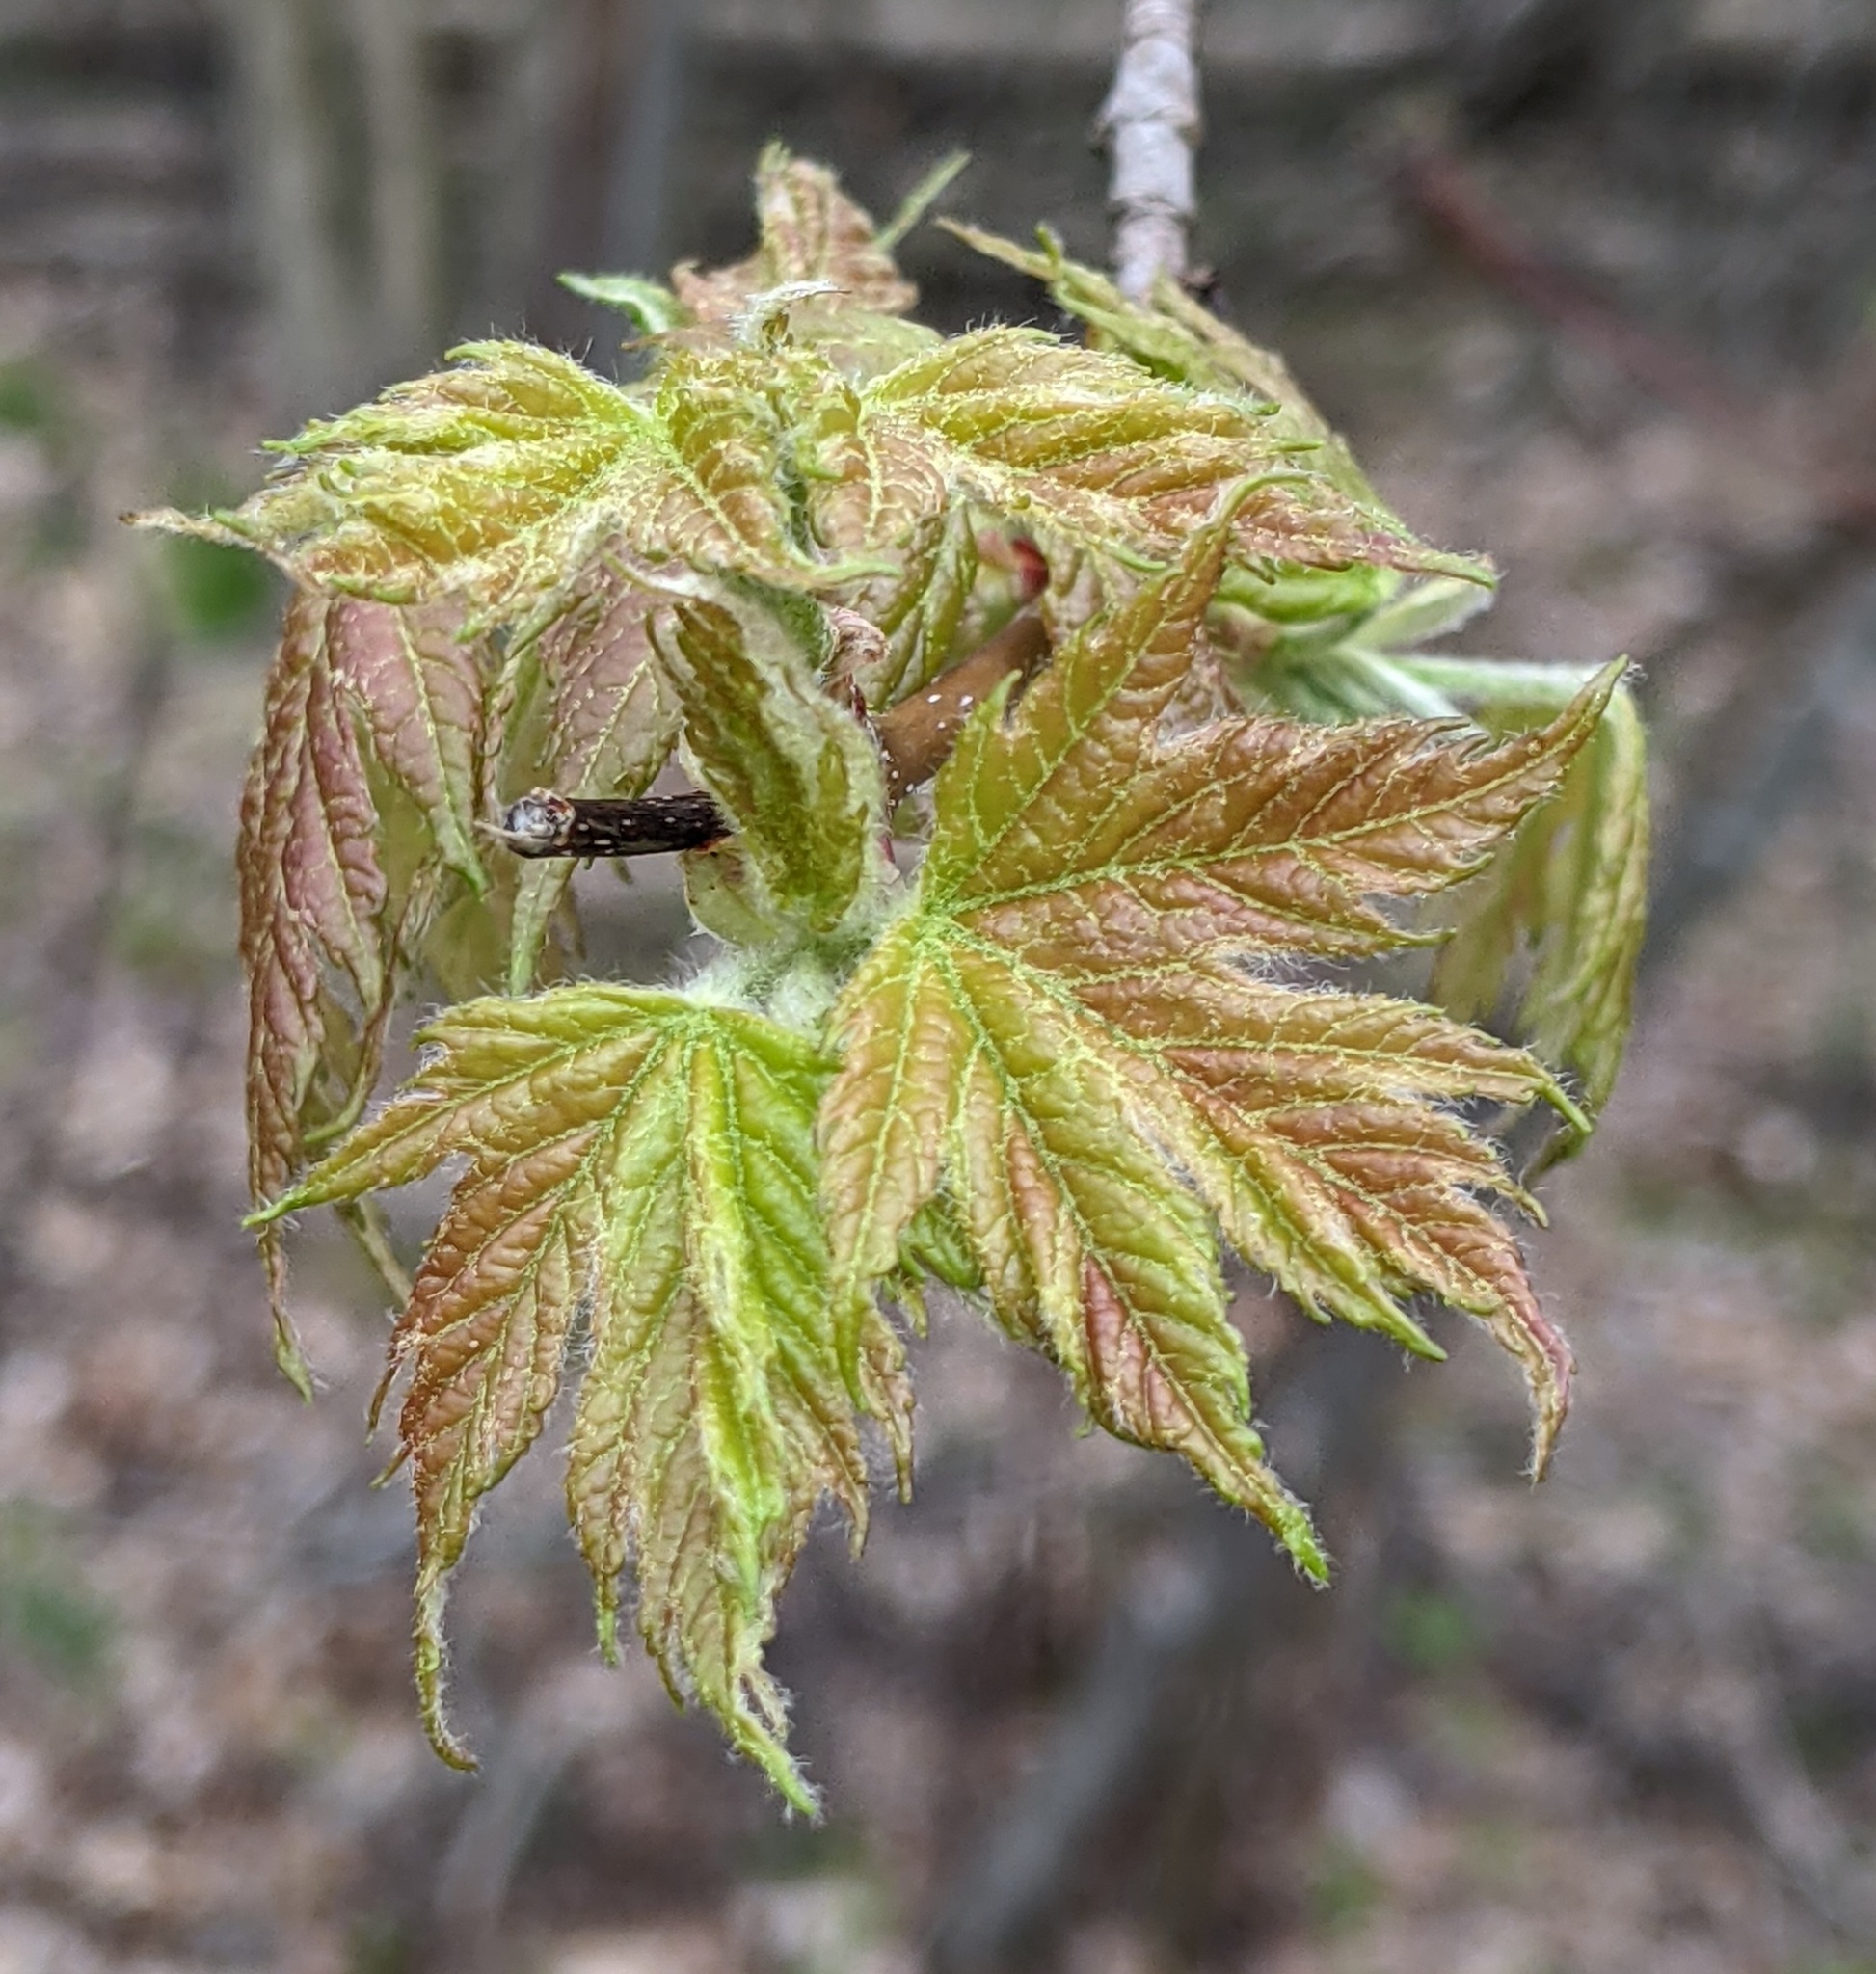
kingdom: Plantae
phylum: Tracheophyta
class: Magnoliopsida
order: Sapindales
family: Sapindaceae
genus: Acer
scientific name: Acer saccharinum
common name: Silver maple
